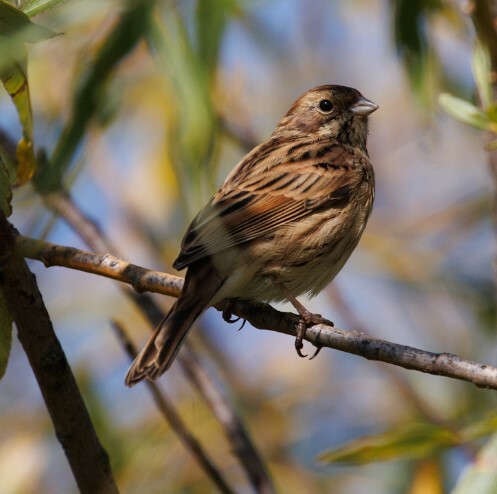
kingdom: Animalia
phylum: Chordata
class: Aves
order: Passeriformes
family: Emberizidae
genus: Emberiza
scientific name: Emberiza schoeniclus
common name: Reed bunting
